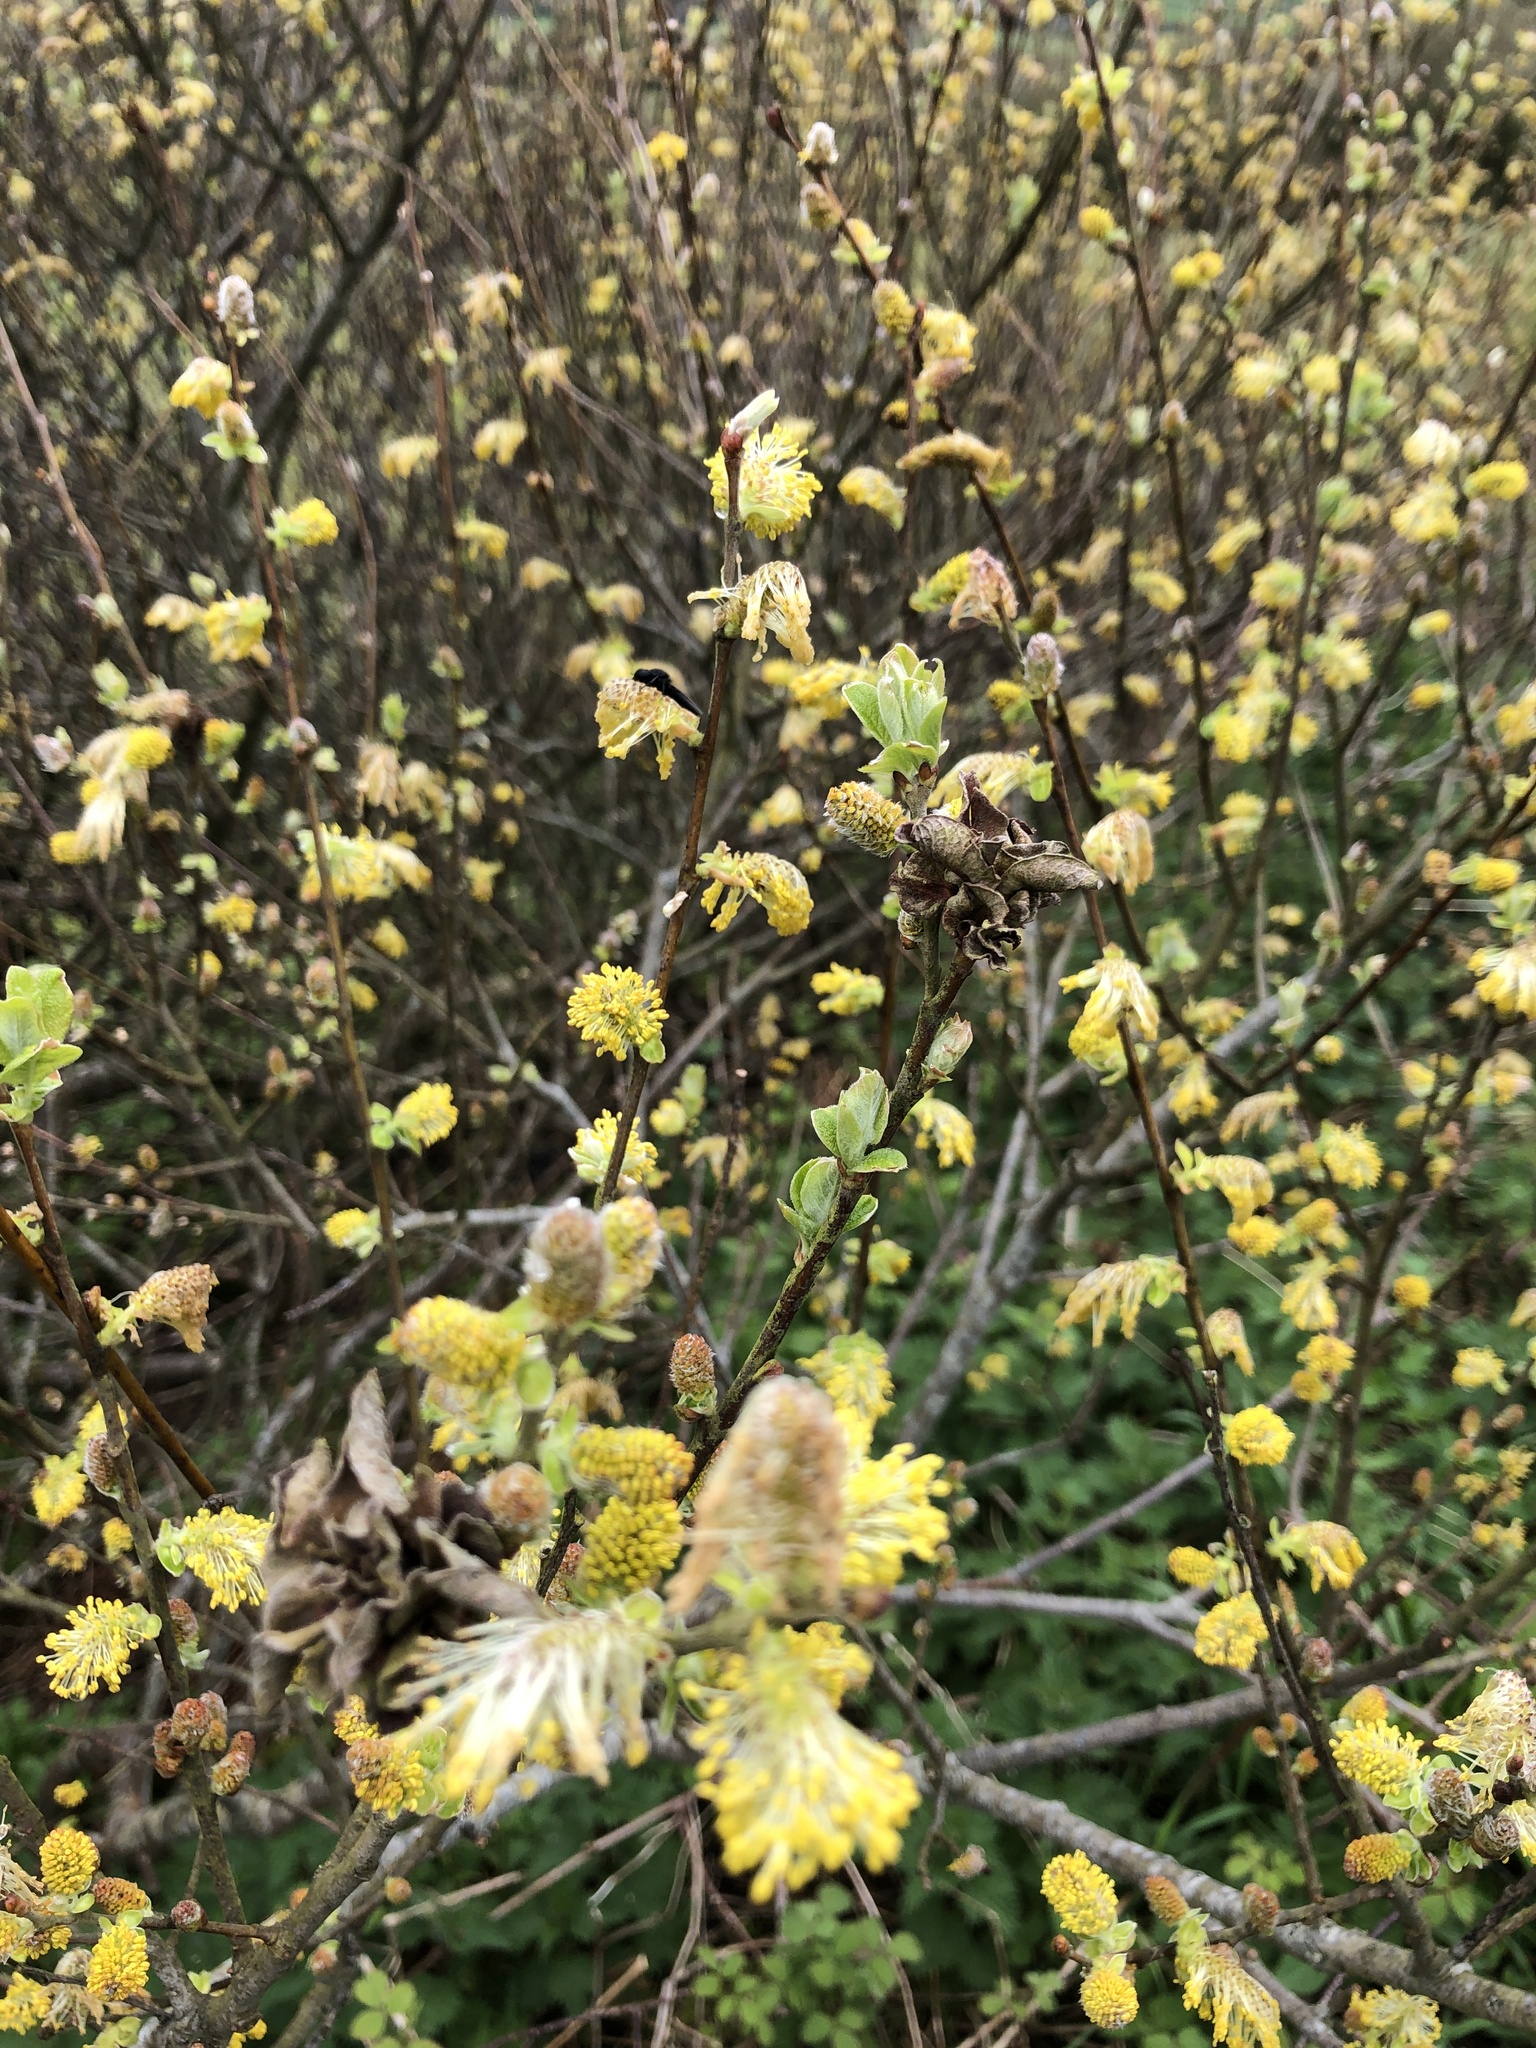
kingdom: Plantae
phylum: Tracheophyta
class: Magnoliopsida
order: Malpighiales
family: Salicaceae
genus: Salix
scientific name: Salix cinerea
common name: Common sallow
